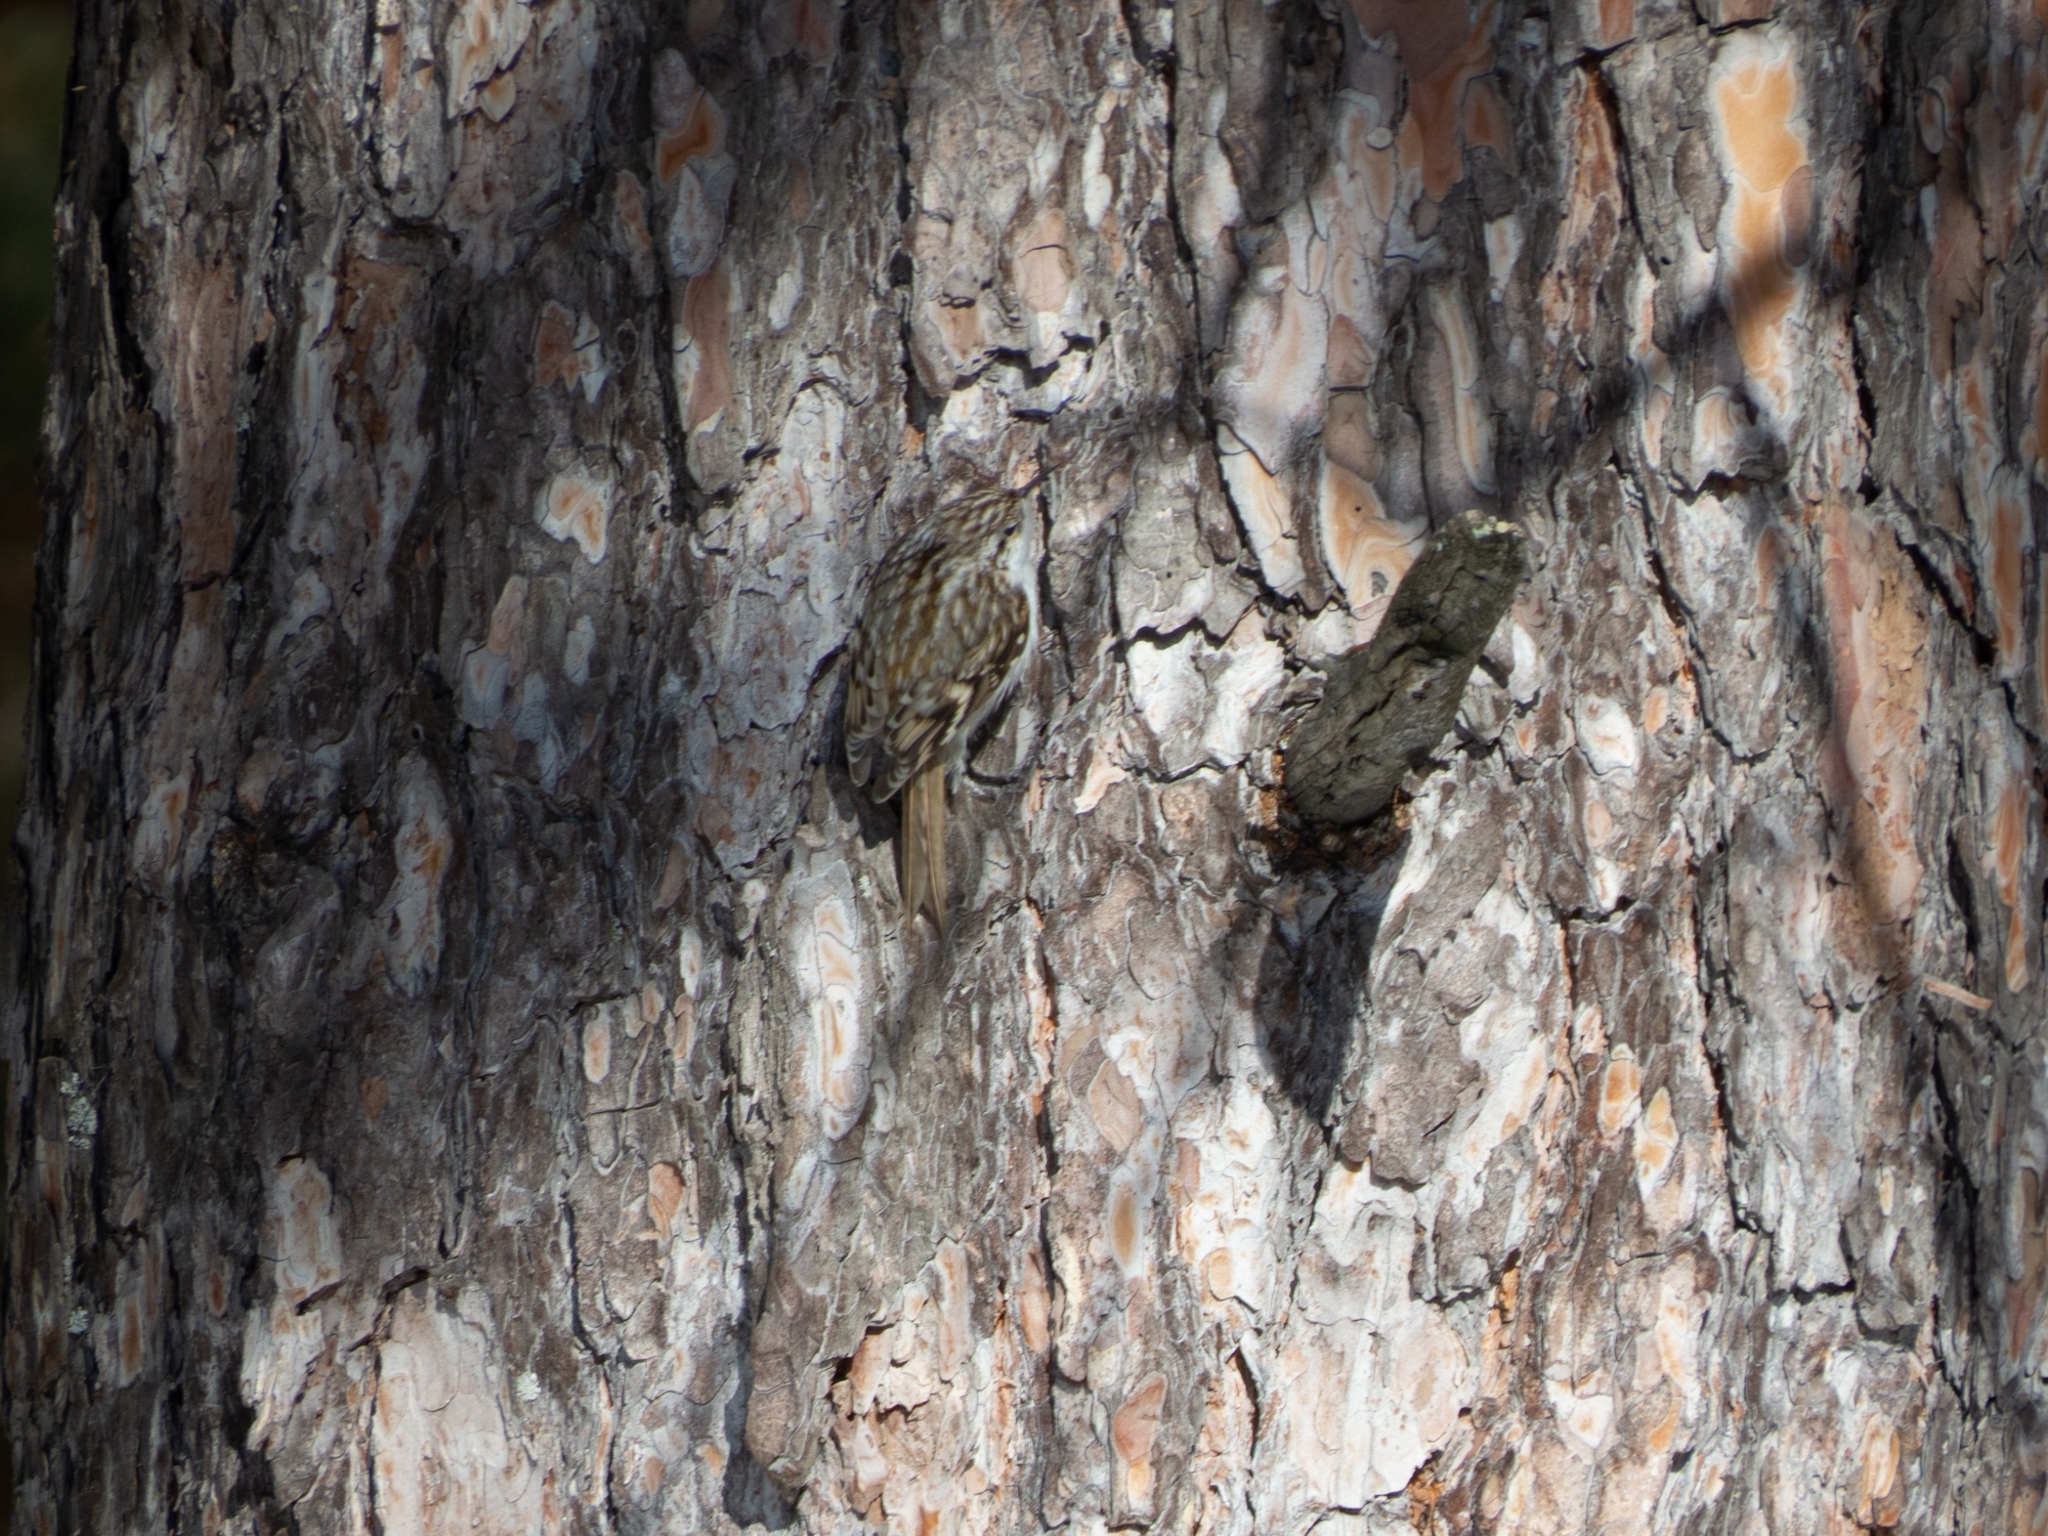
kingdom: Animalia
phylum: Chordata
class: Aves
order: Passeriformes
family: Certhiidae
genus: Certhia
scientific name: Certhia familiaris
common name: Eurasian treecreeper
